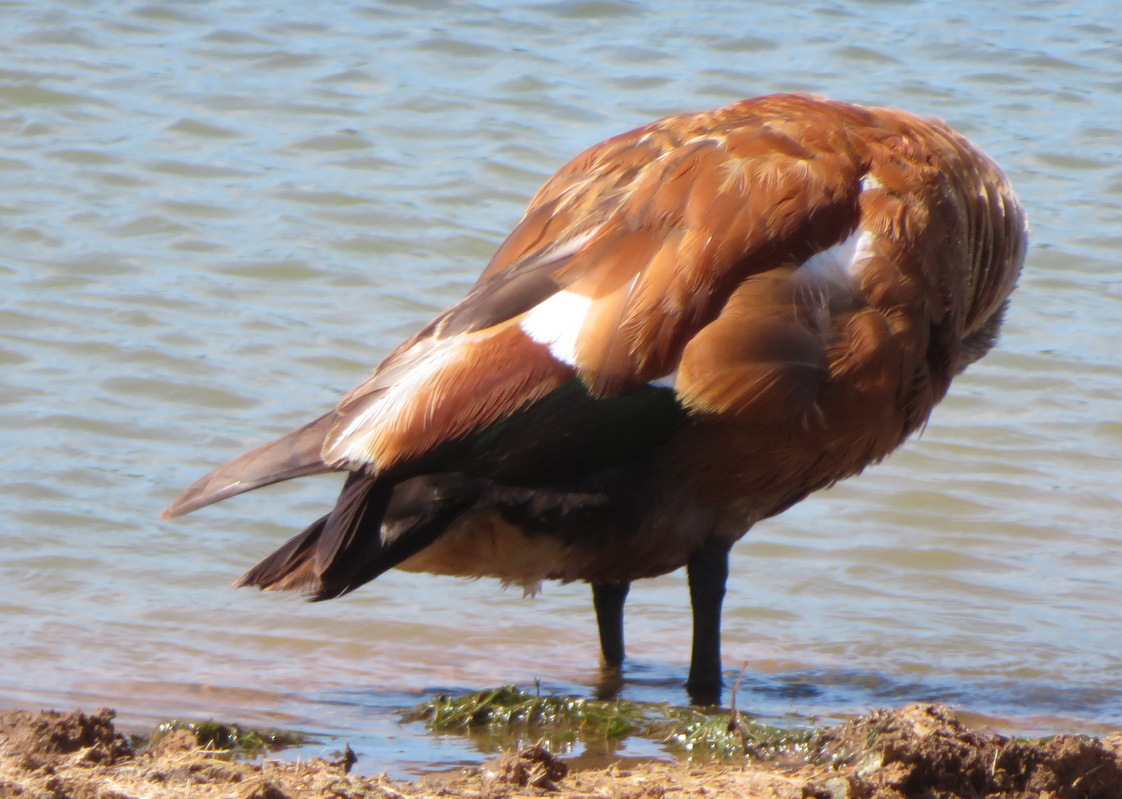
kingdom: Animalia
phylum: Chordata
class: Aves
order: Anseriformes
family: Anatidae
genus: Tadorna
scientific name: Tadorna cana
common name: South african shelduck
